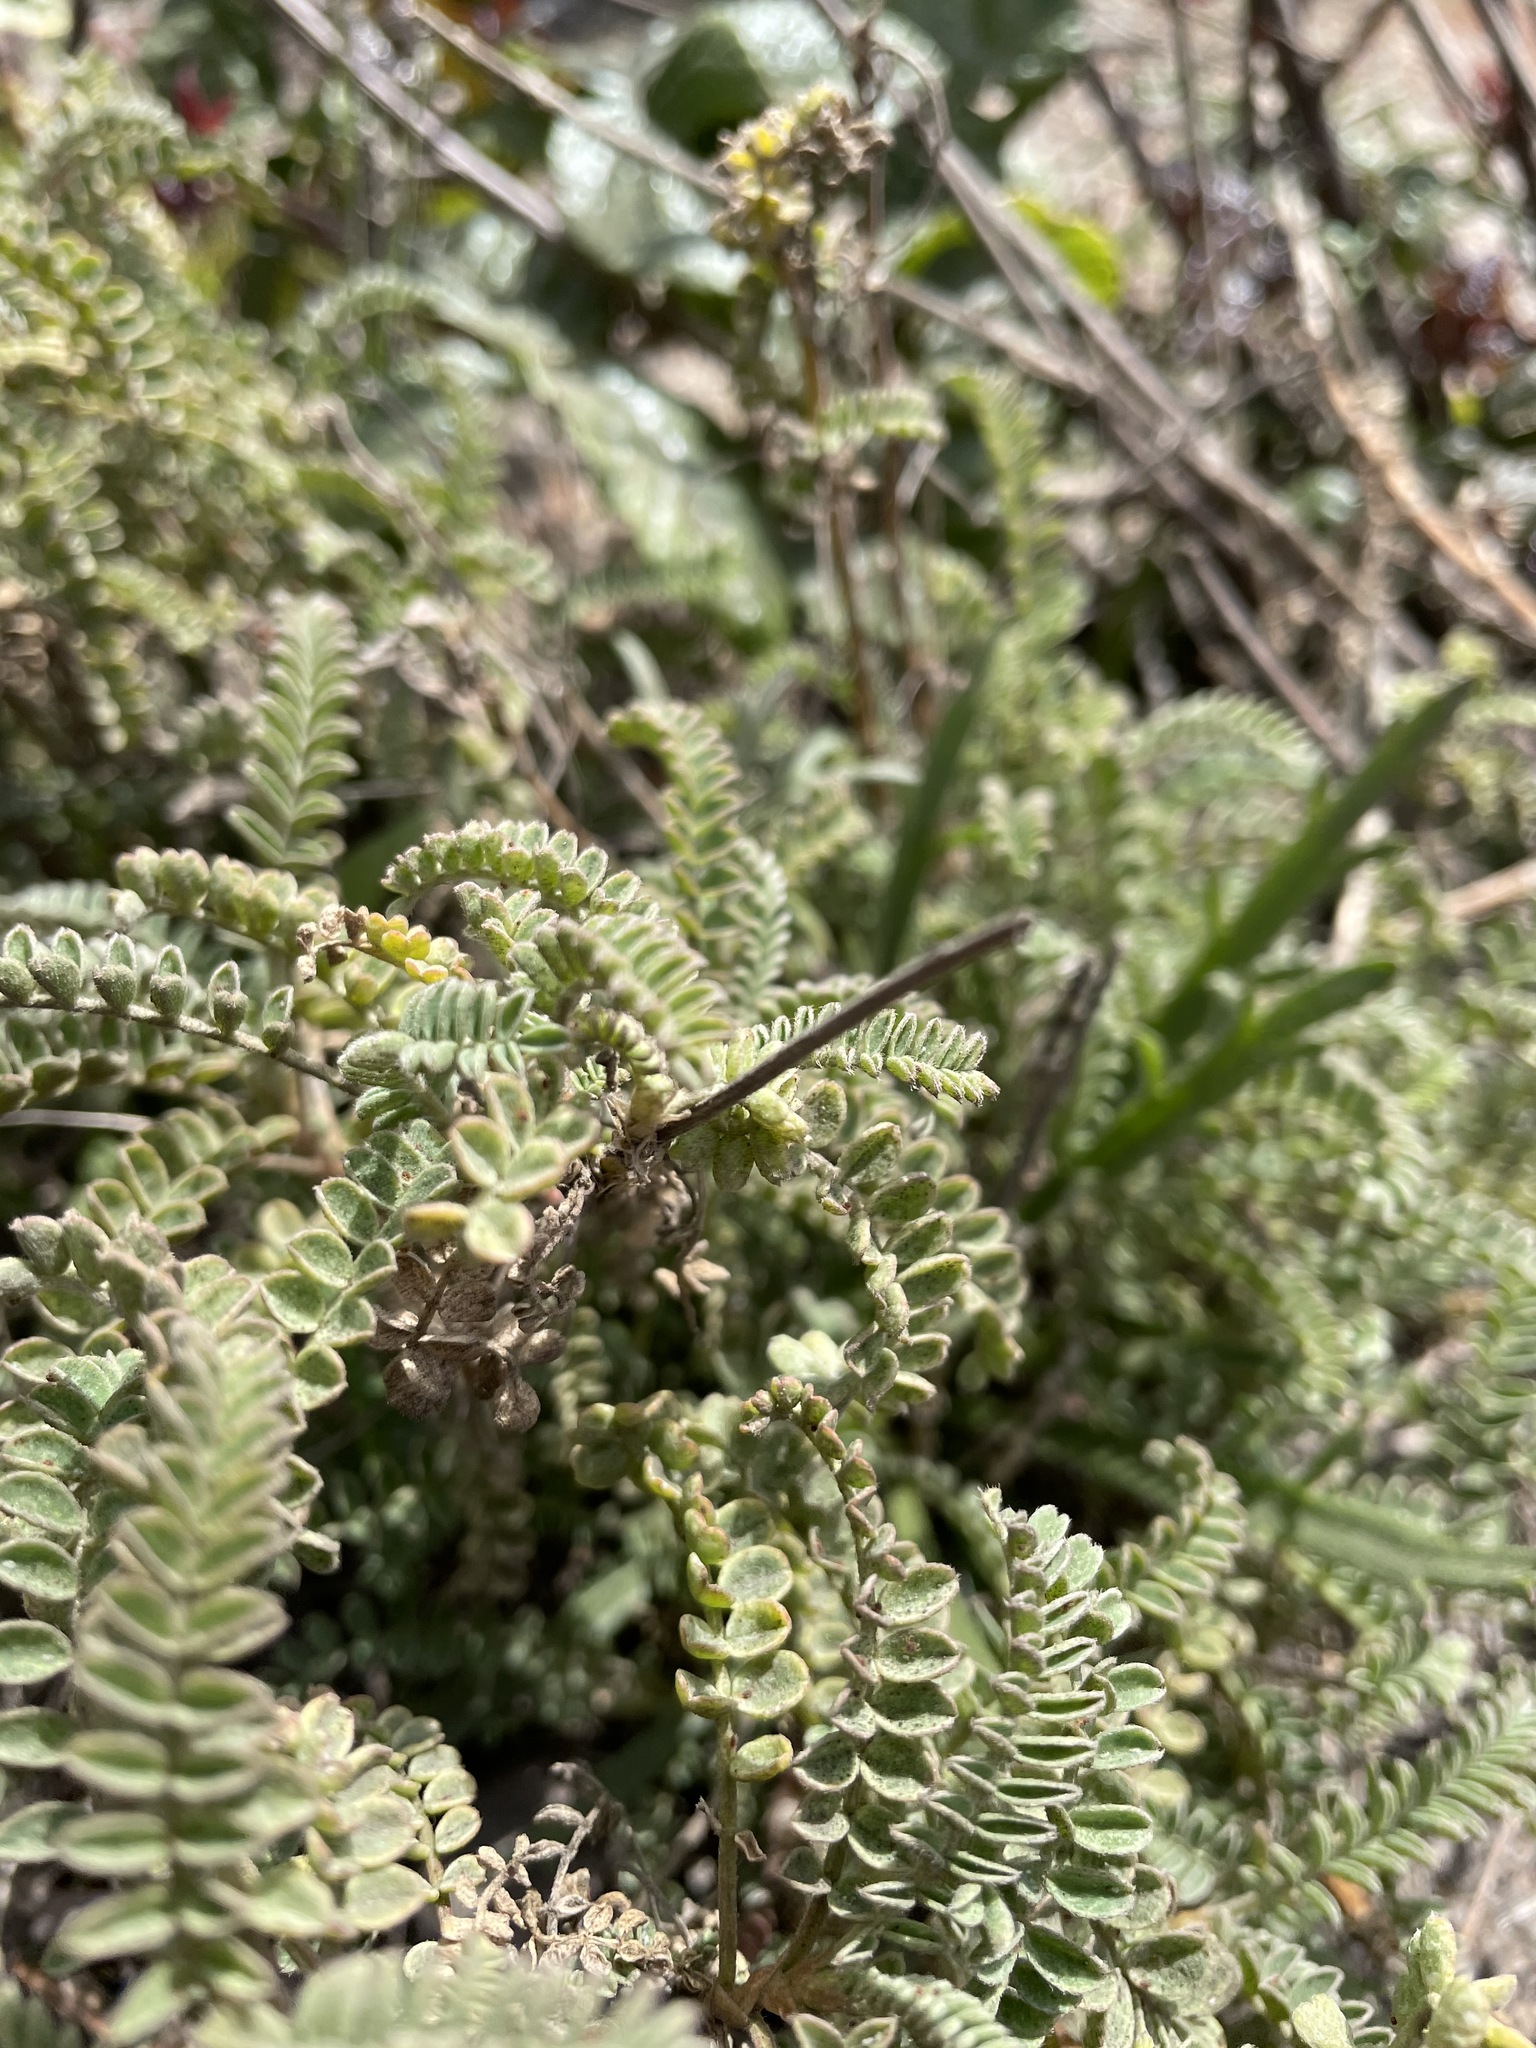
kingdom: Plantae
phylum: Tracheophyta
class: Magnoliopsida
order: Fabales
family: Fabaceae
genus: Astragalus
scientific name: Astragalus nuttallii
